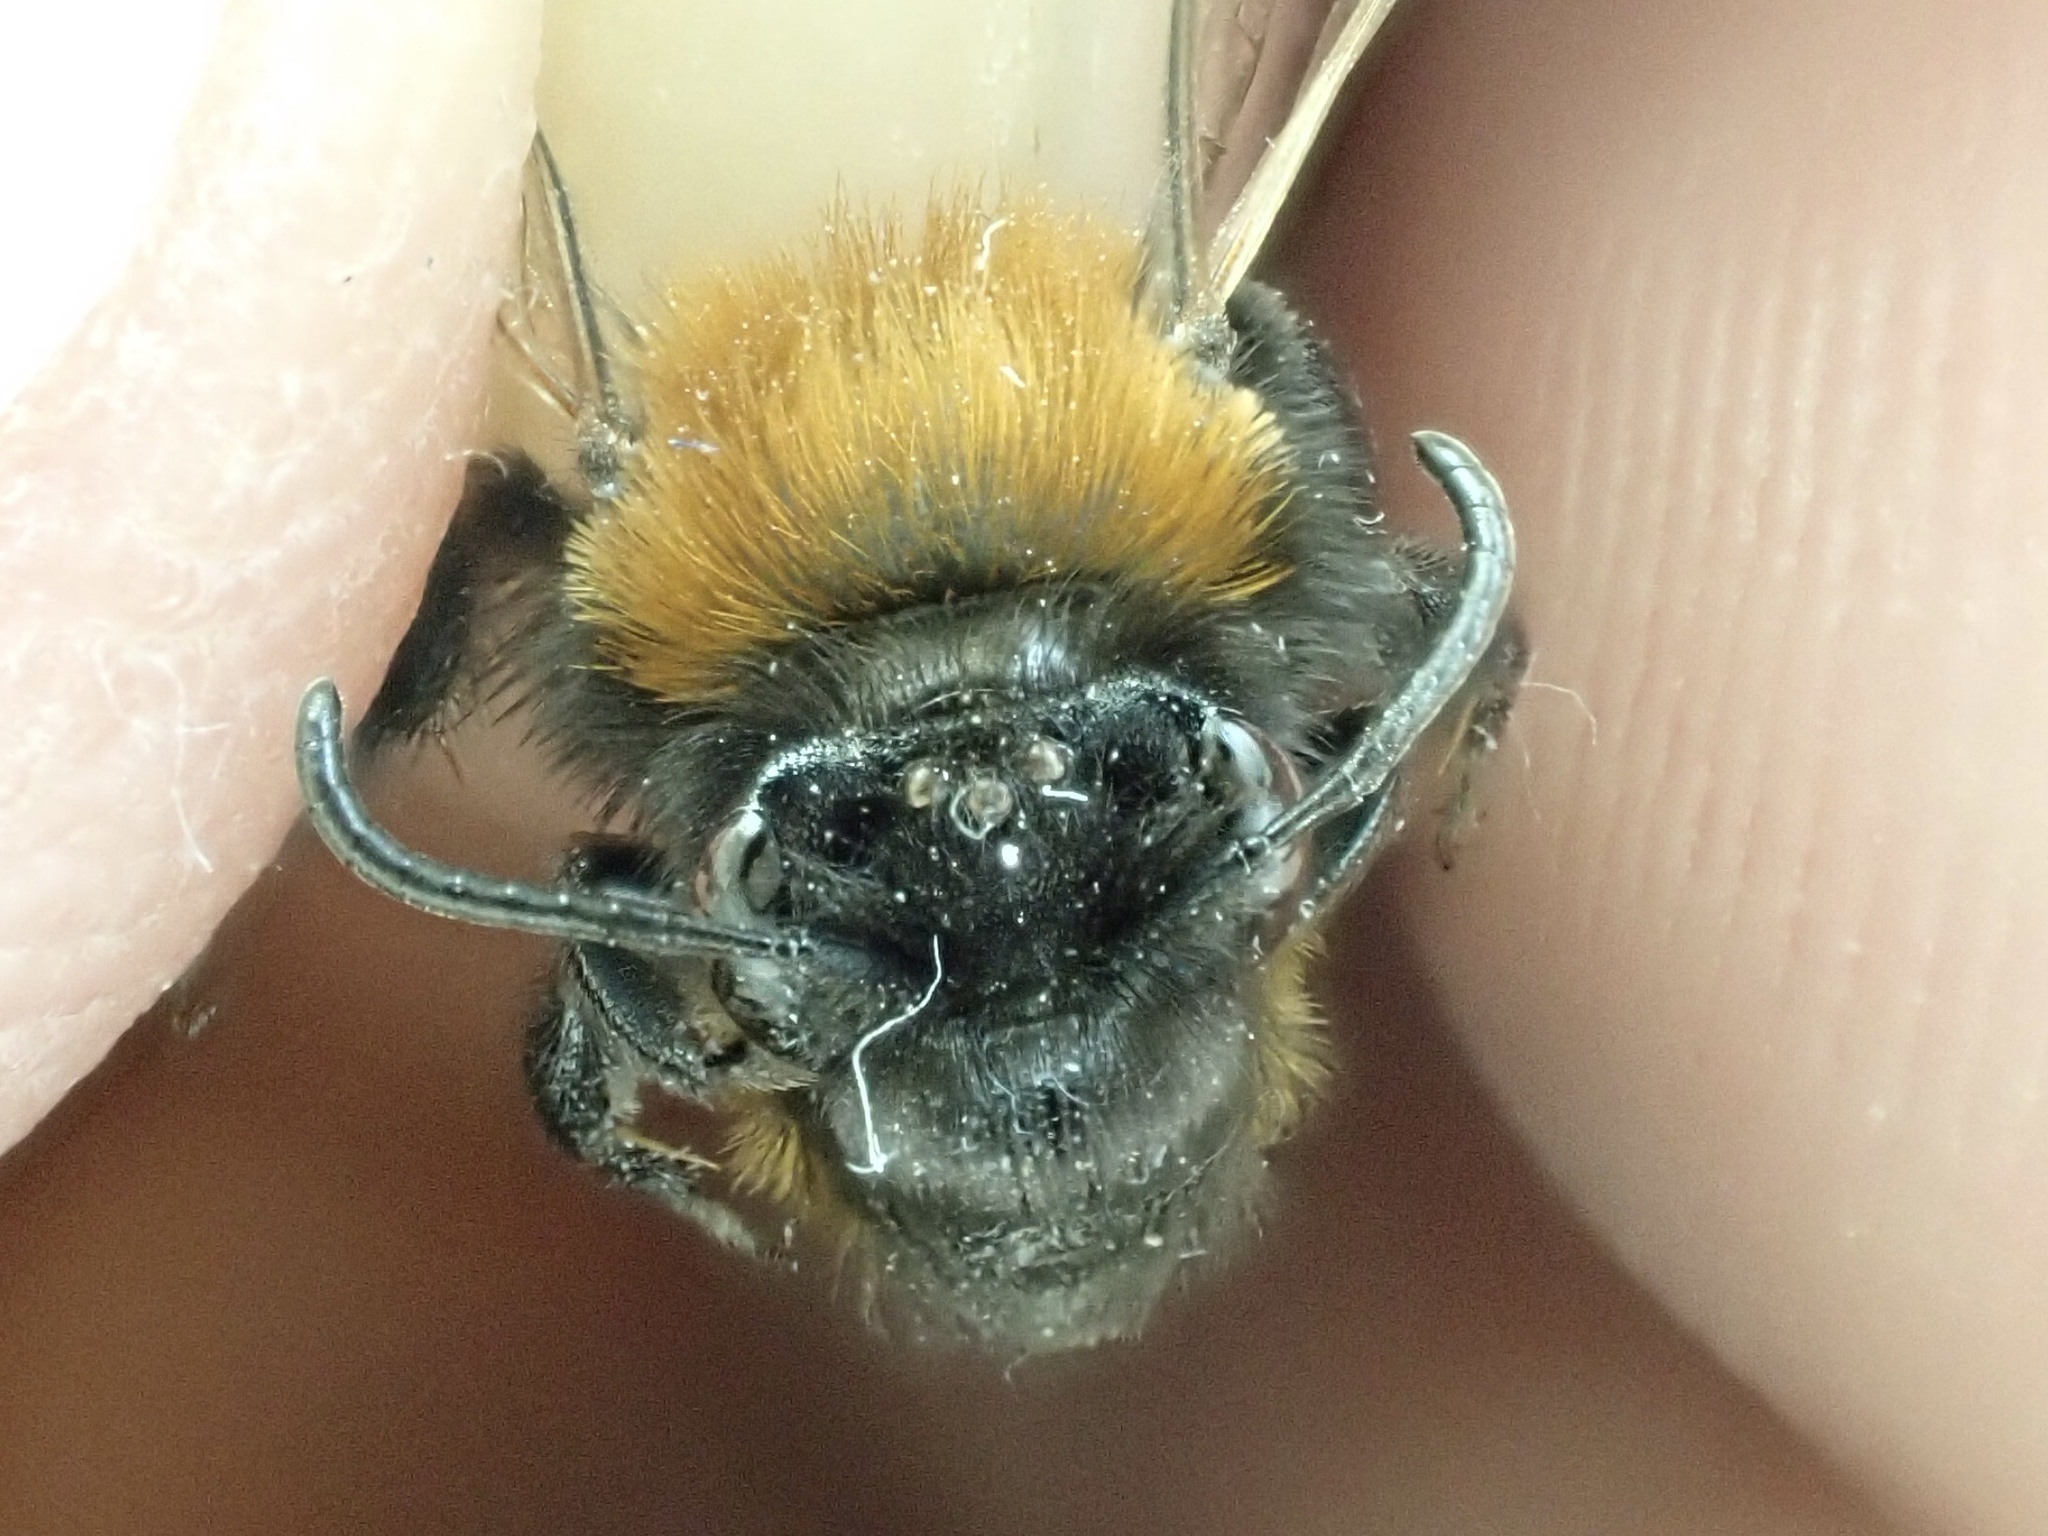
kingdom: Animalia
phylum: Arthropoda
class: Insecta
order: Hymenoptera
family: Andrenidae
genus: Andrena
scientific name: Andrena fulva
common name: Tawny mining bee
